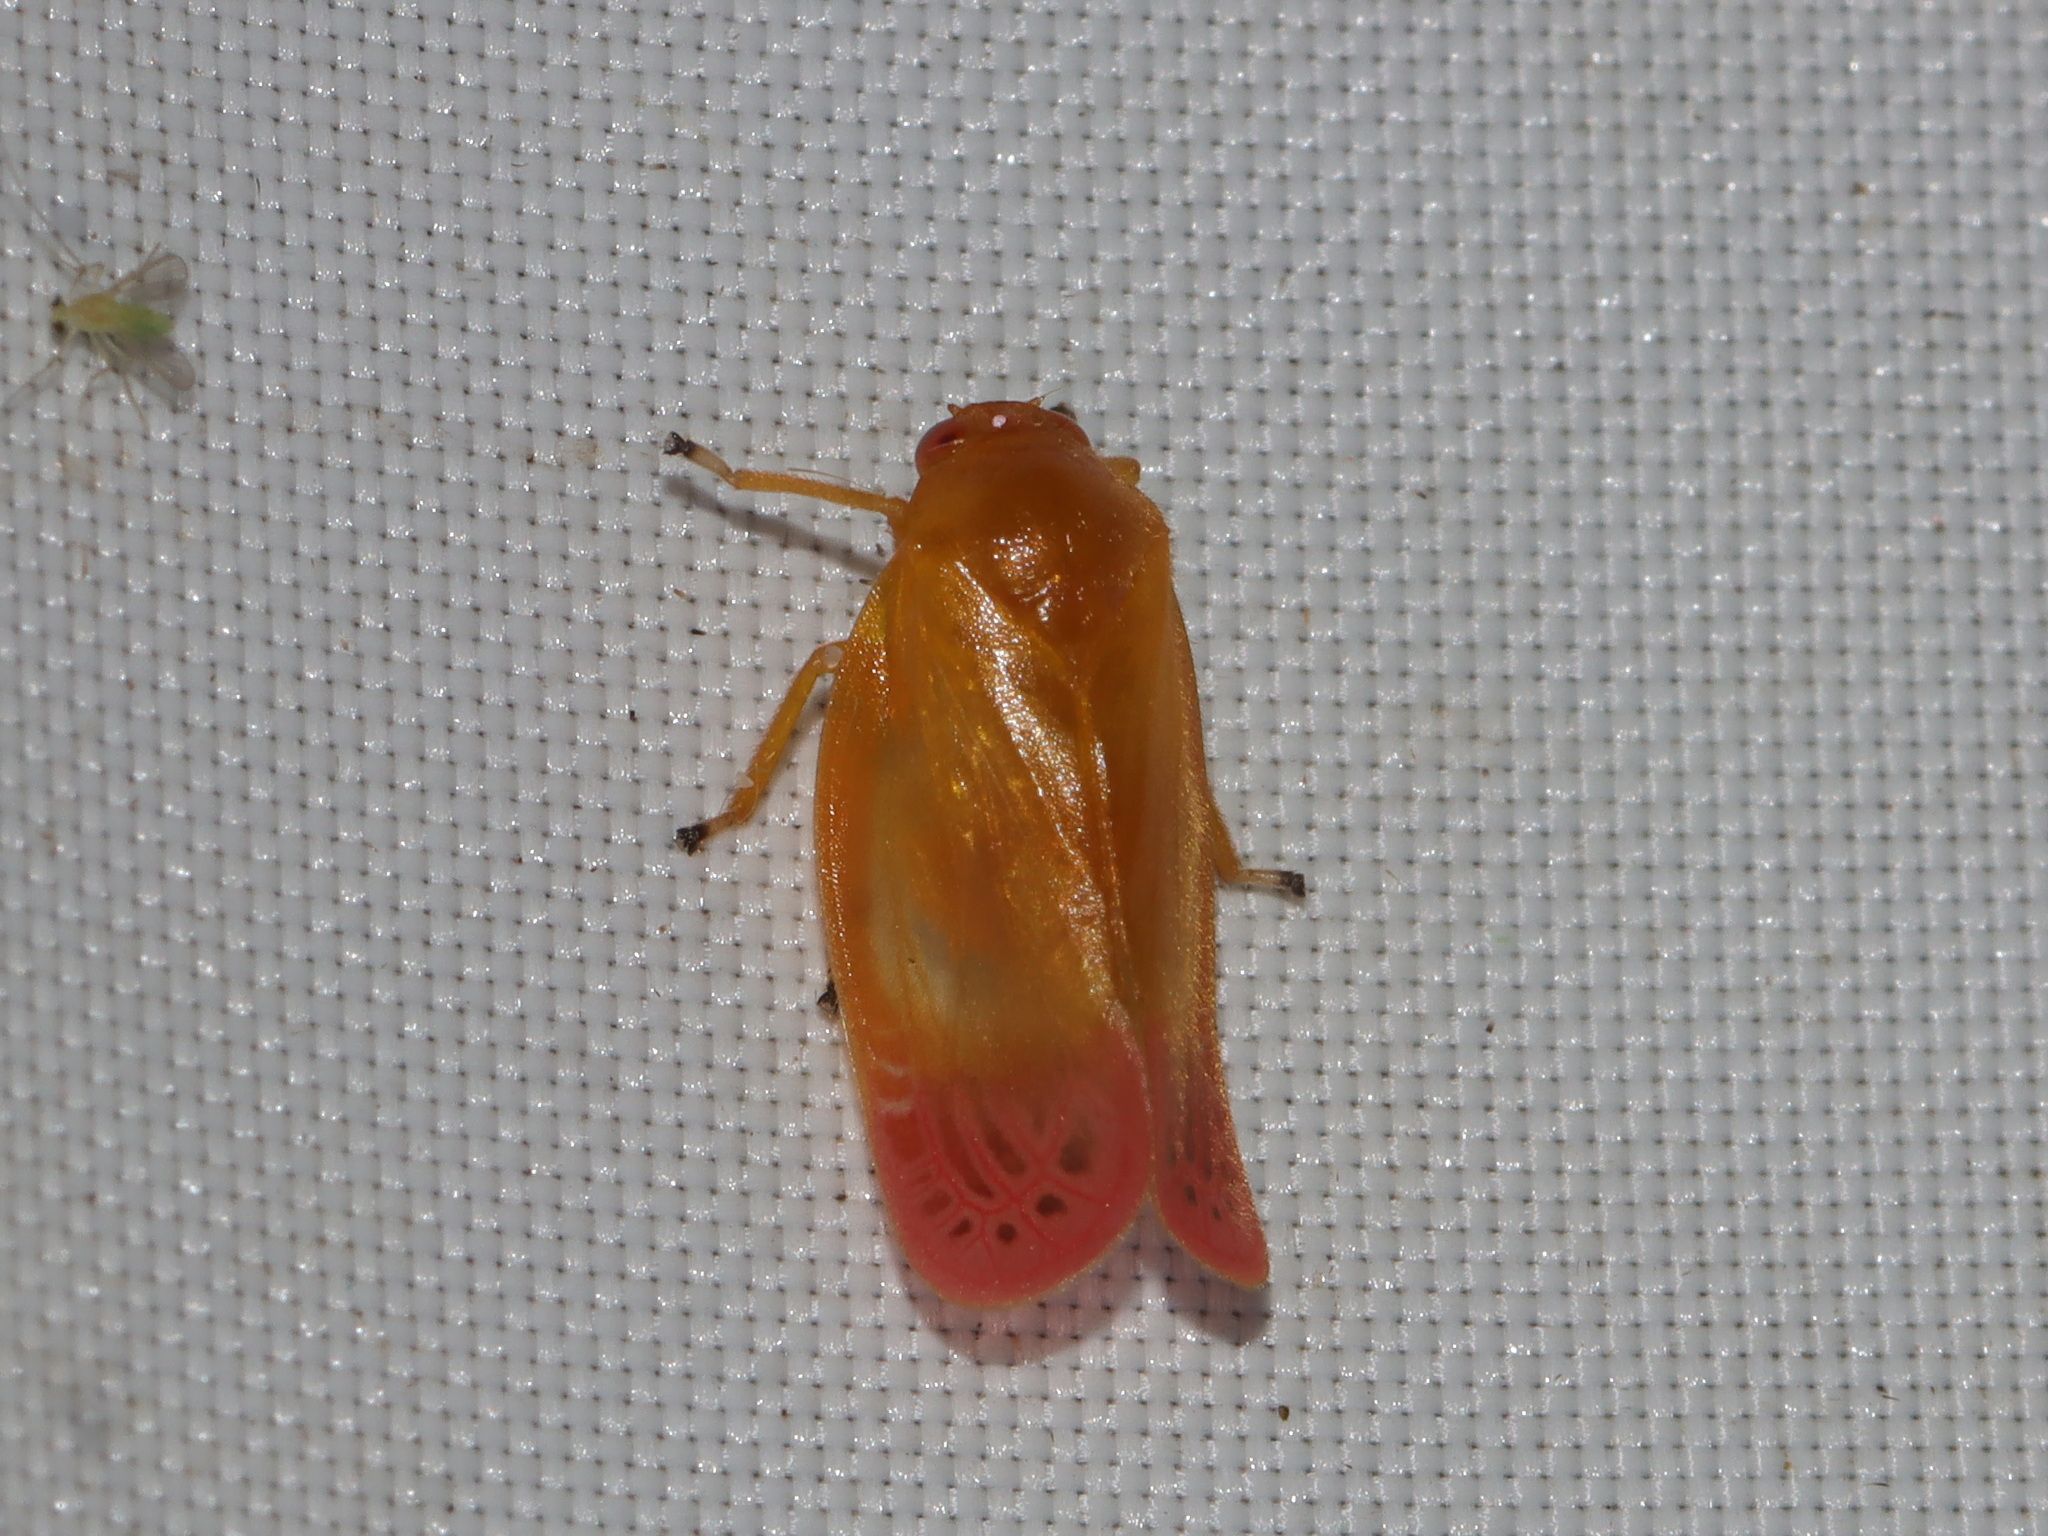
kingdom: Animalia
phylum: Arthropoda
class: Insecta
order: Hemiptera
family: Cercopidae
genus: Eoscarta
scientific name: Eoscarta liternoides
